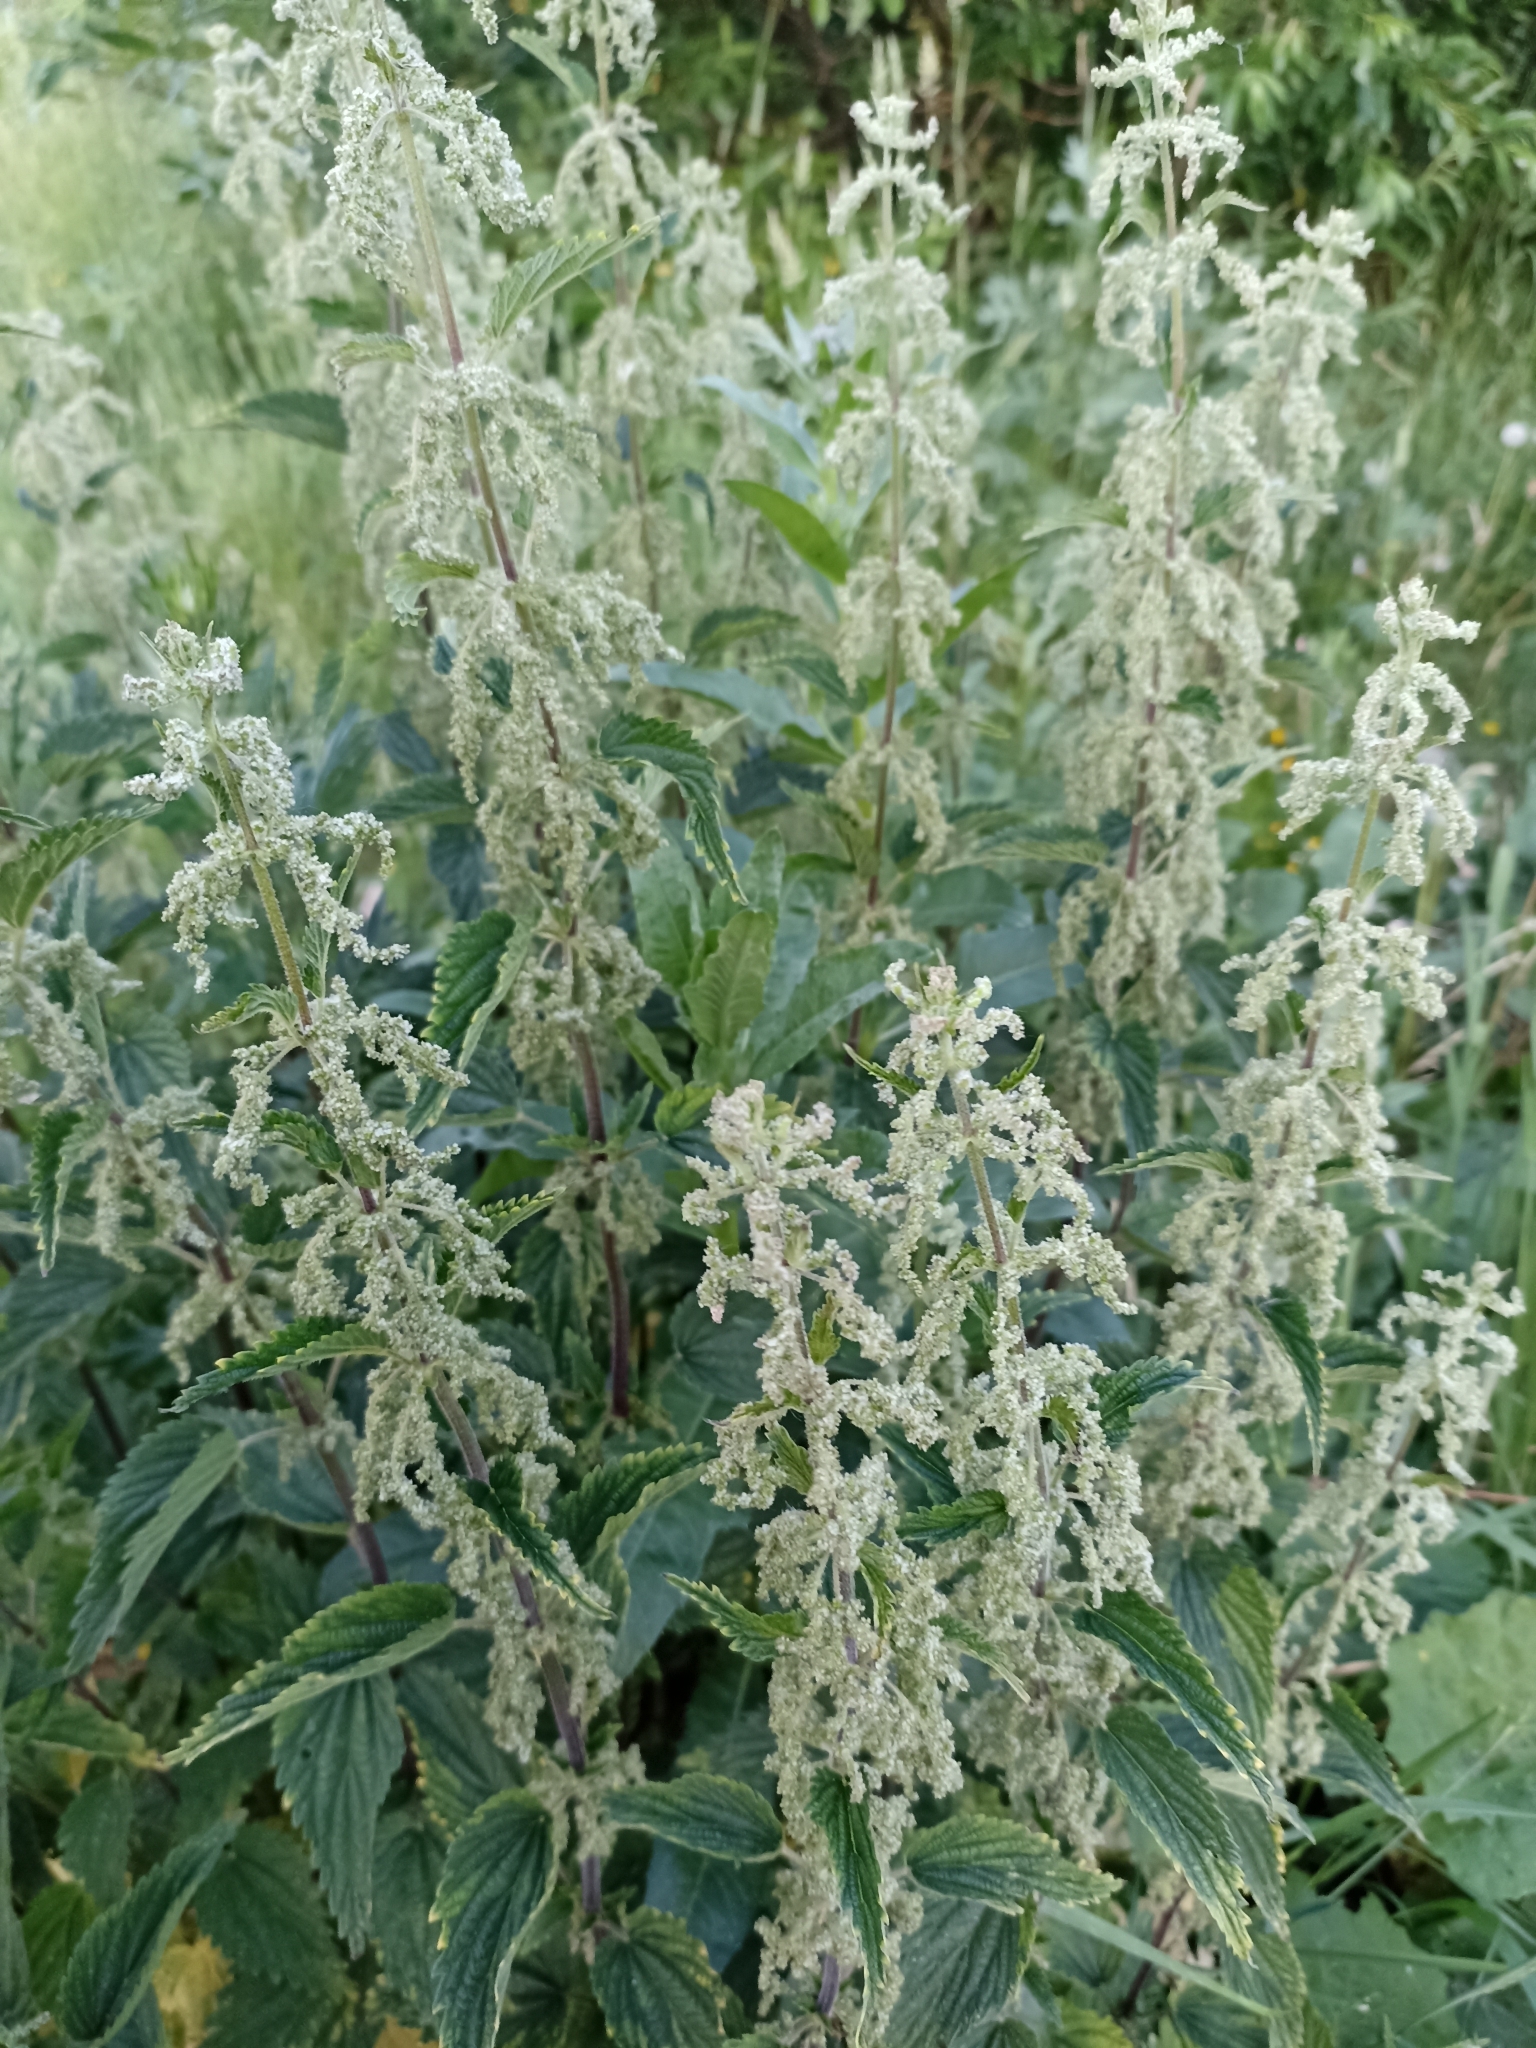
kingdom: Plantae
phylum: Tracheophyta
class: Magnoliopsida
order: Rosales
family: Urticaceae
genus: Urtica
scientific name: Urtica dioica
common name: Common nettle
